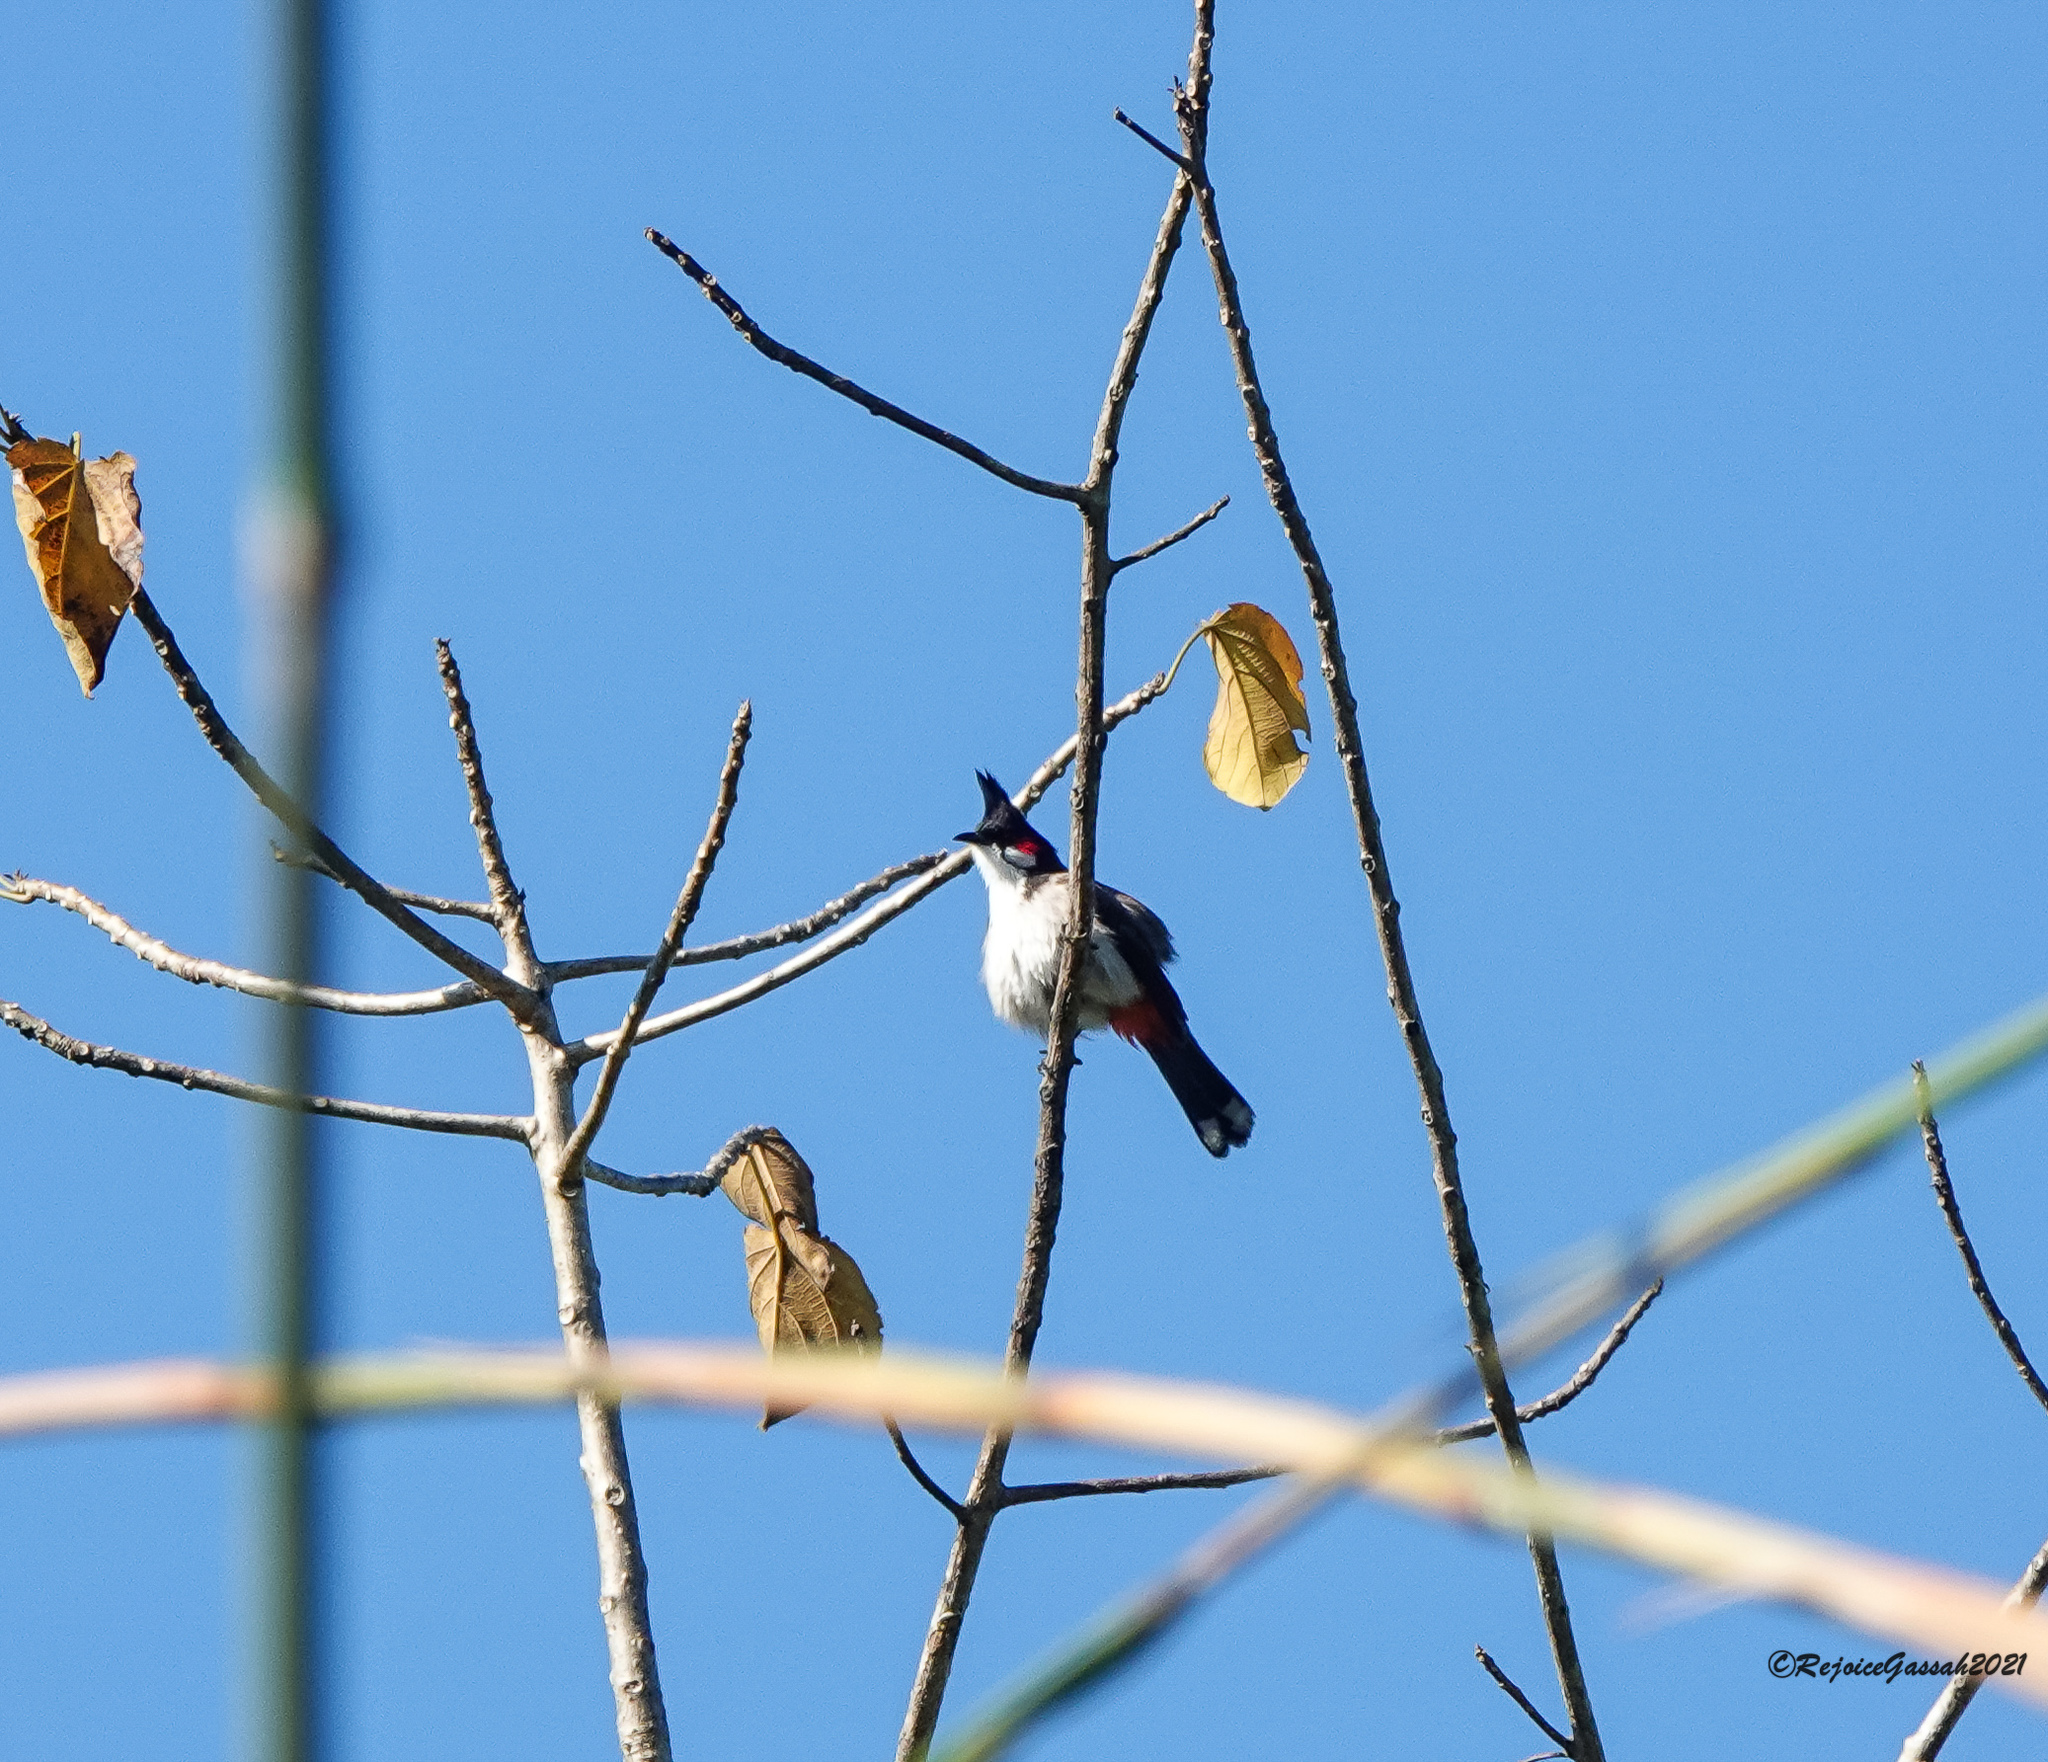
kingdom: Animalia
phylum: Chordata
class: Aves
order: Passeriformes
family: Pycnonotidae
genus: Pycnonotus
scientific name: Pycnonotus jocosus
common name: Red-whiskered bulbul
